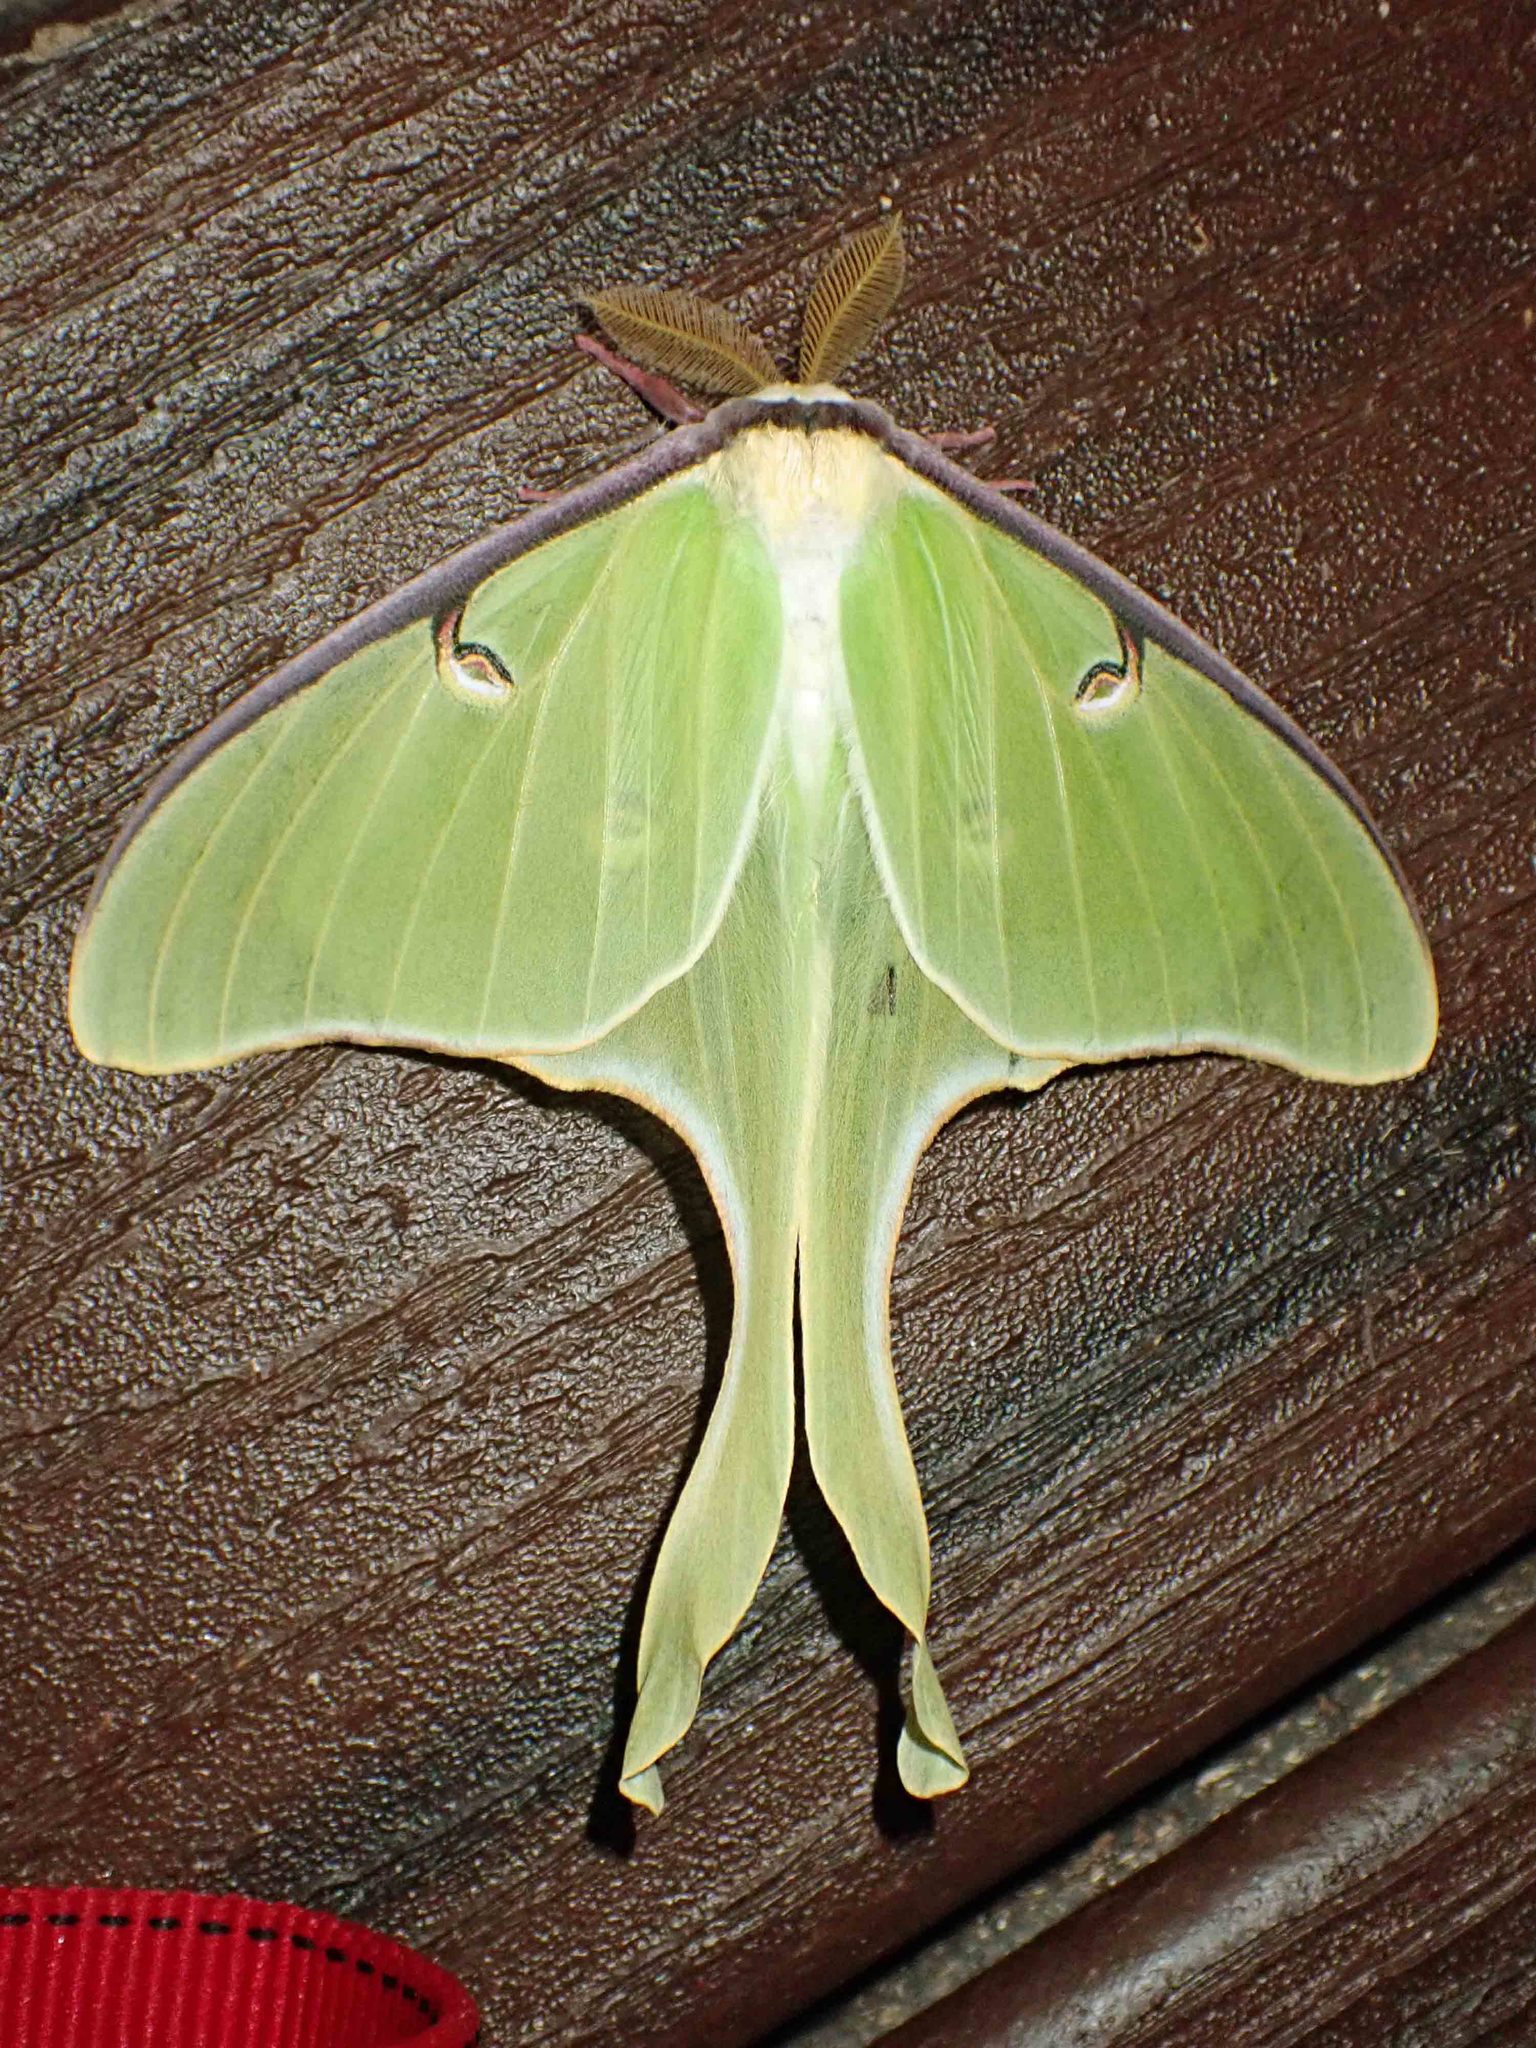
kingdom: Animalia
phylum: Arthropoda
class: Insecta
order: Lepidoptera
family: Saturniidae
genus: Actias
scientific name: Actias luna
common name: Luna moth
